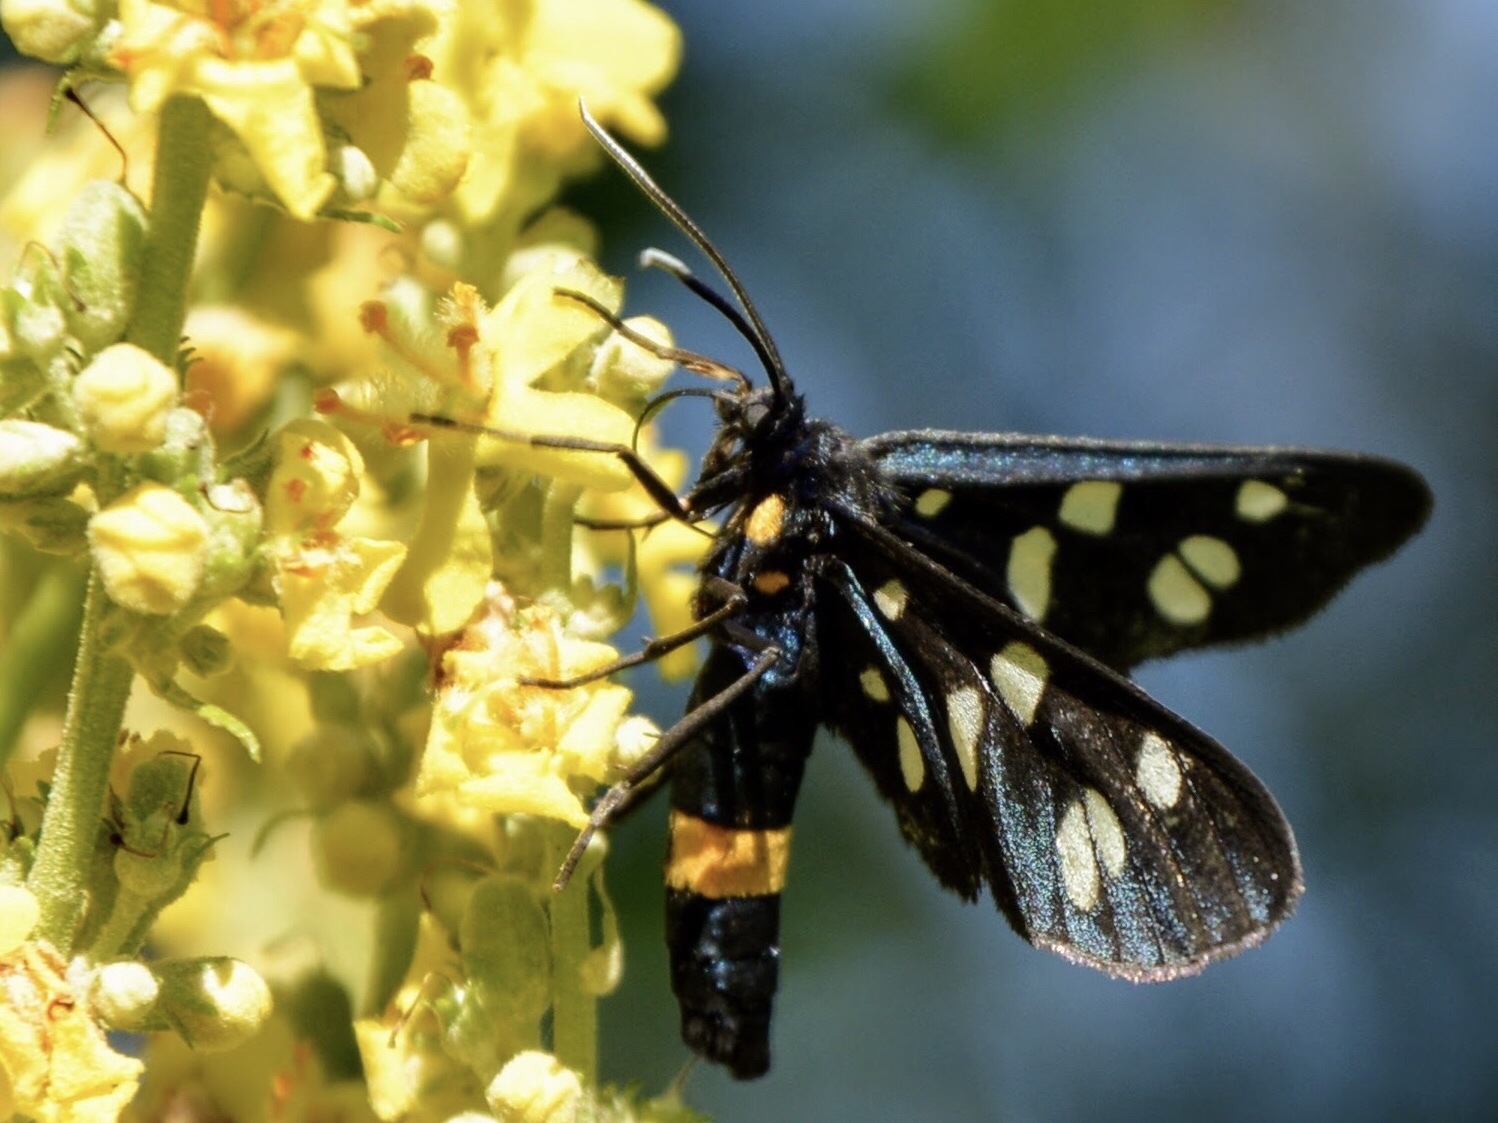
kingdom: Animalia
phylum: Arthropoda
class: Insecta
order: Lepidoptera
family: Erebidae
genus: Amata
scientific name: Amata phegea
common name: Nine-spotted
